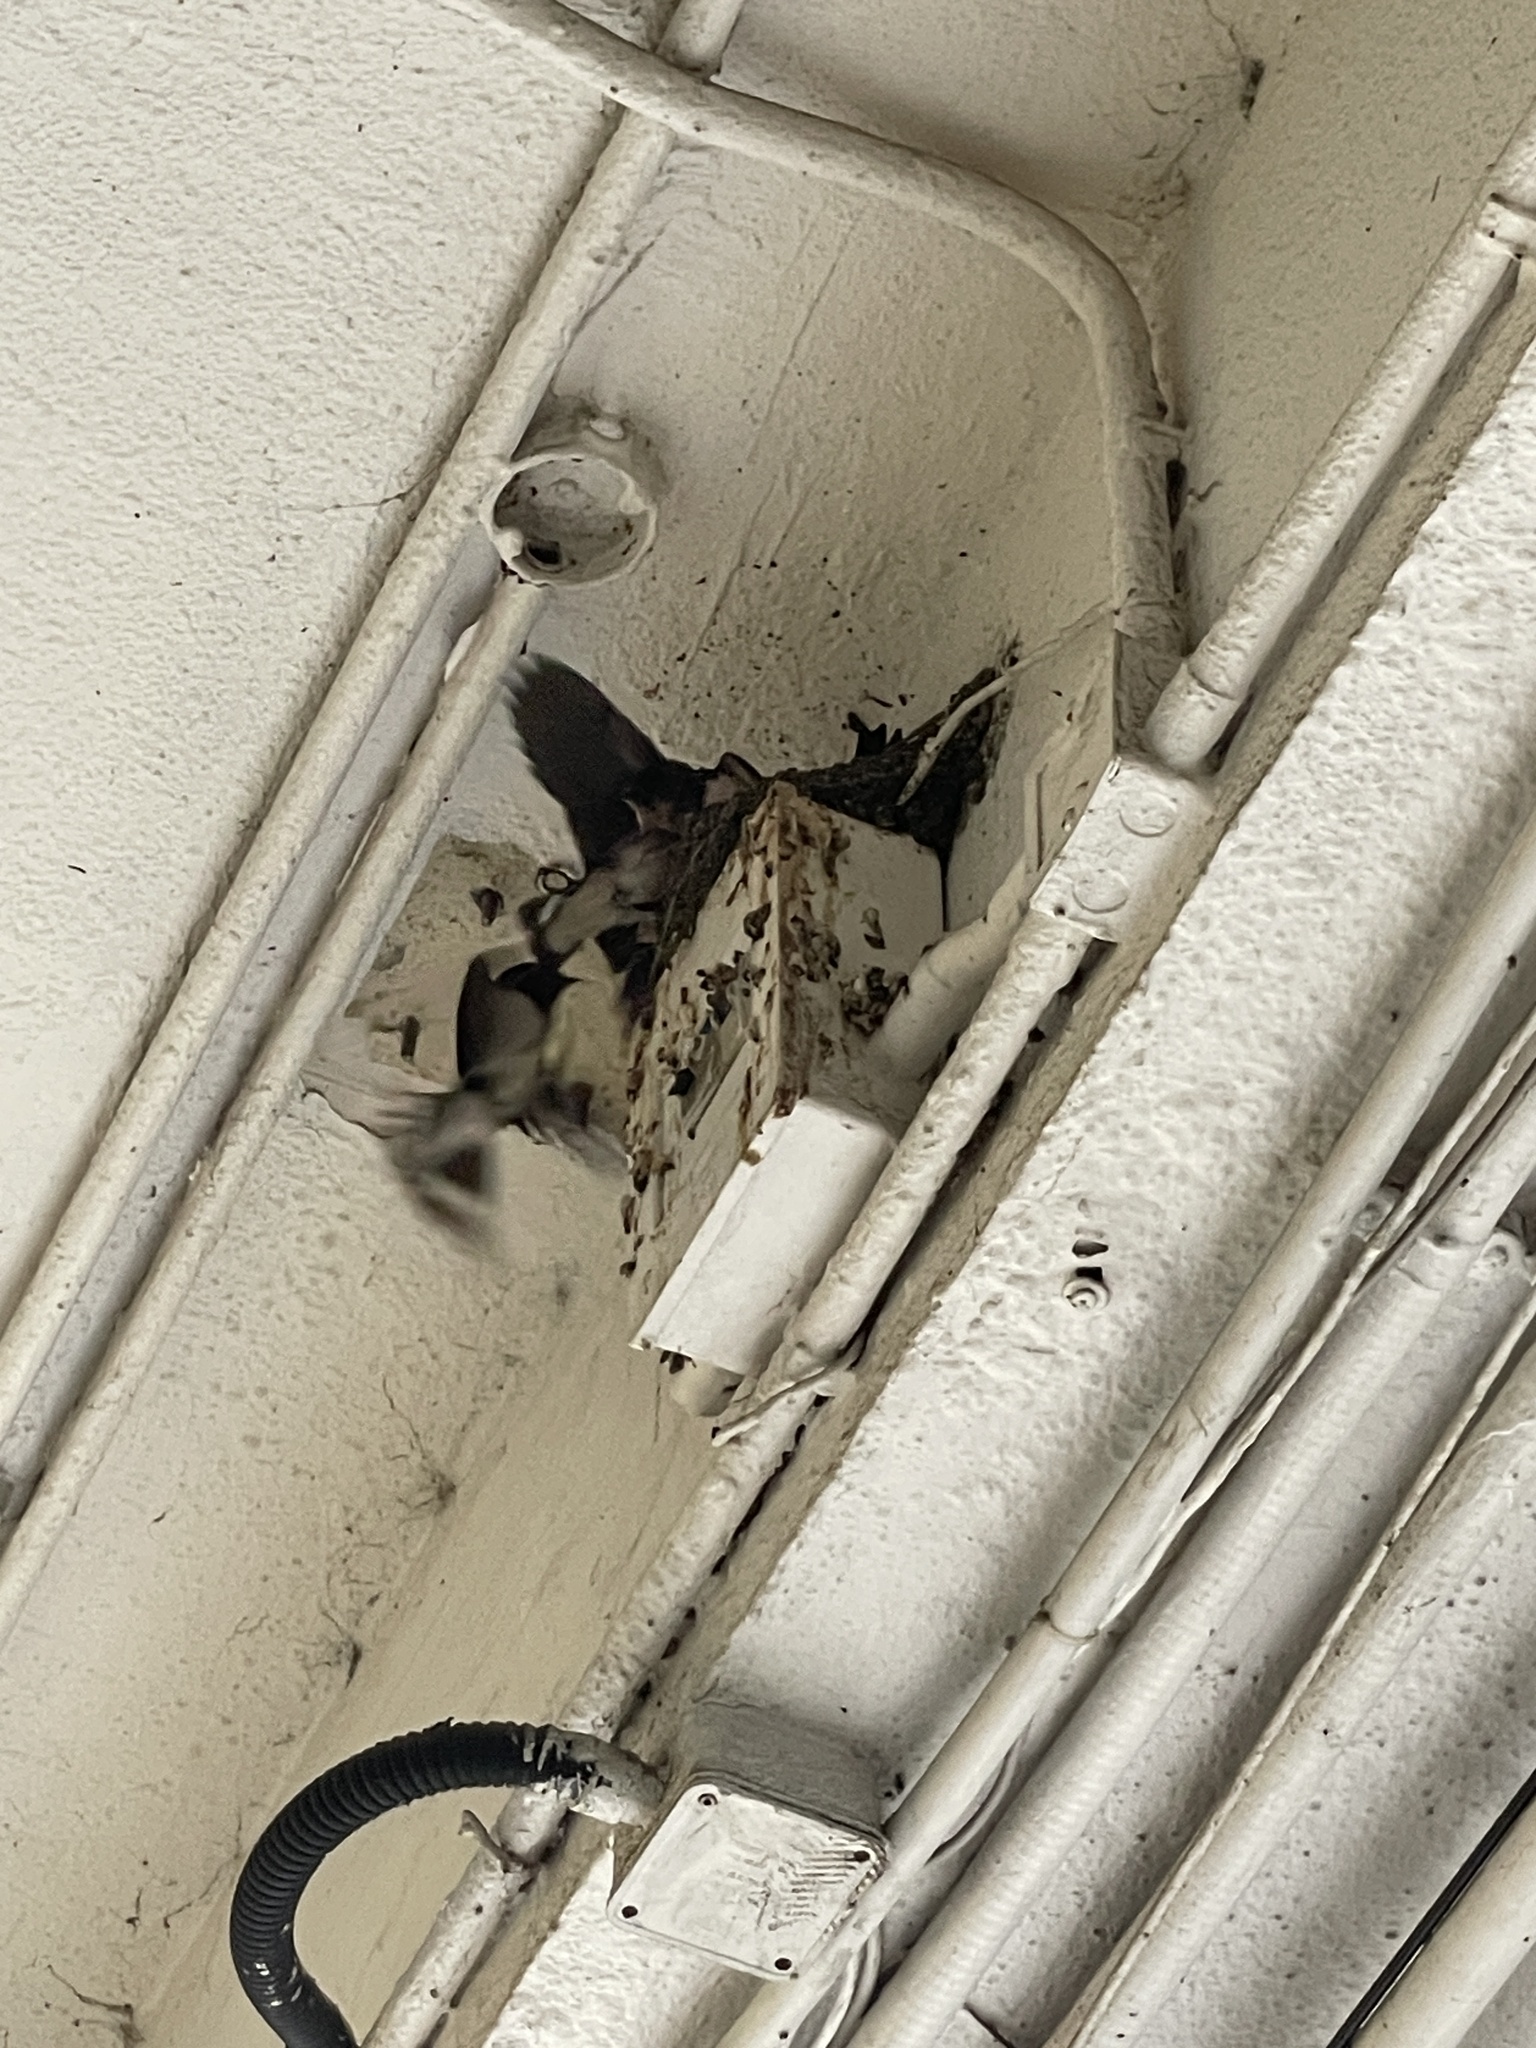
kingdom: Animalia
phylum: Chordata
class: Aves
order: Passeriformes
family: Hirundinidae
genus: Hirundo
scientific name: Hirundo rustica
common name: Barn swallow
